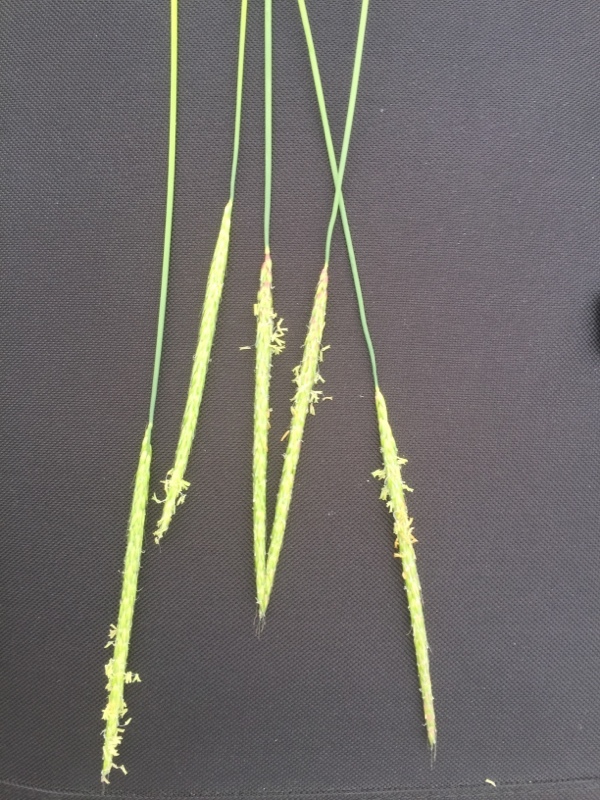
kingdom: Plantae
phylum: Tracheophyta
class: Liliopsida
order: Poales
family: Poaceae
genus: Alopecurus
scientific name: Alopecurus myosuroides
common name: Black-grass
